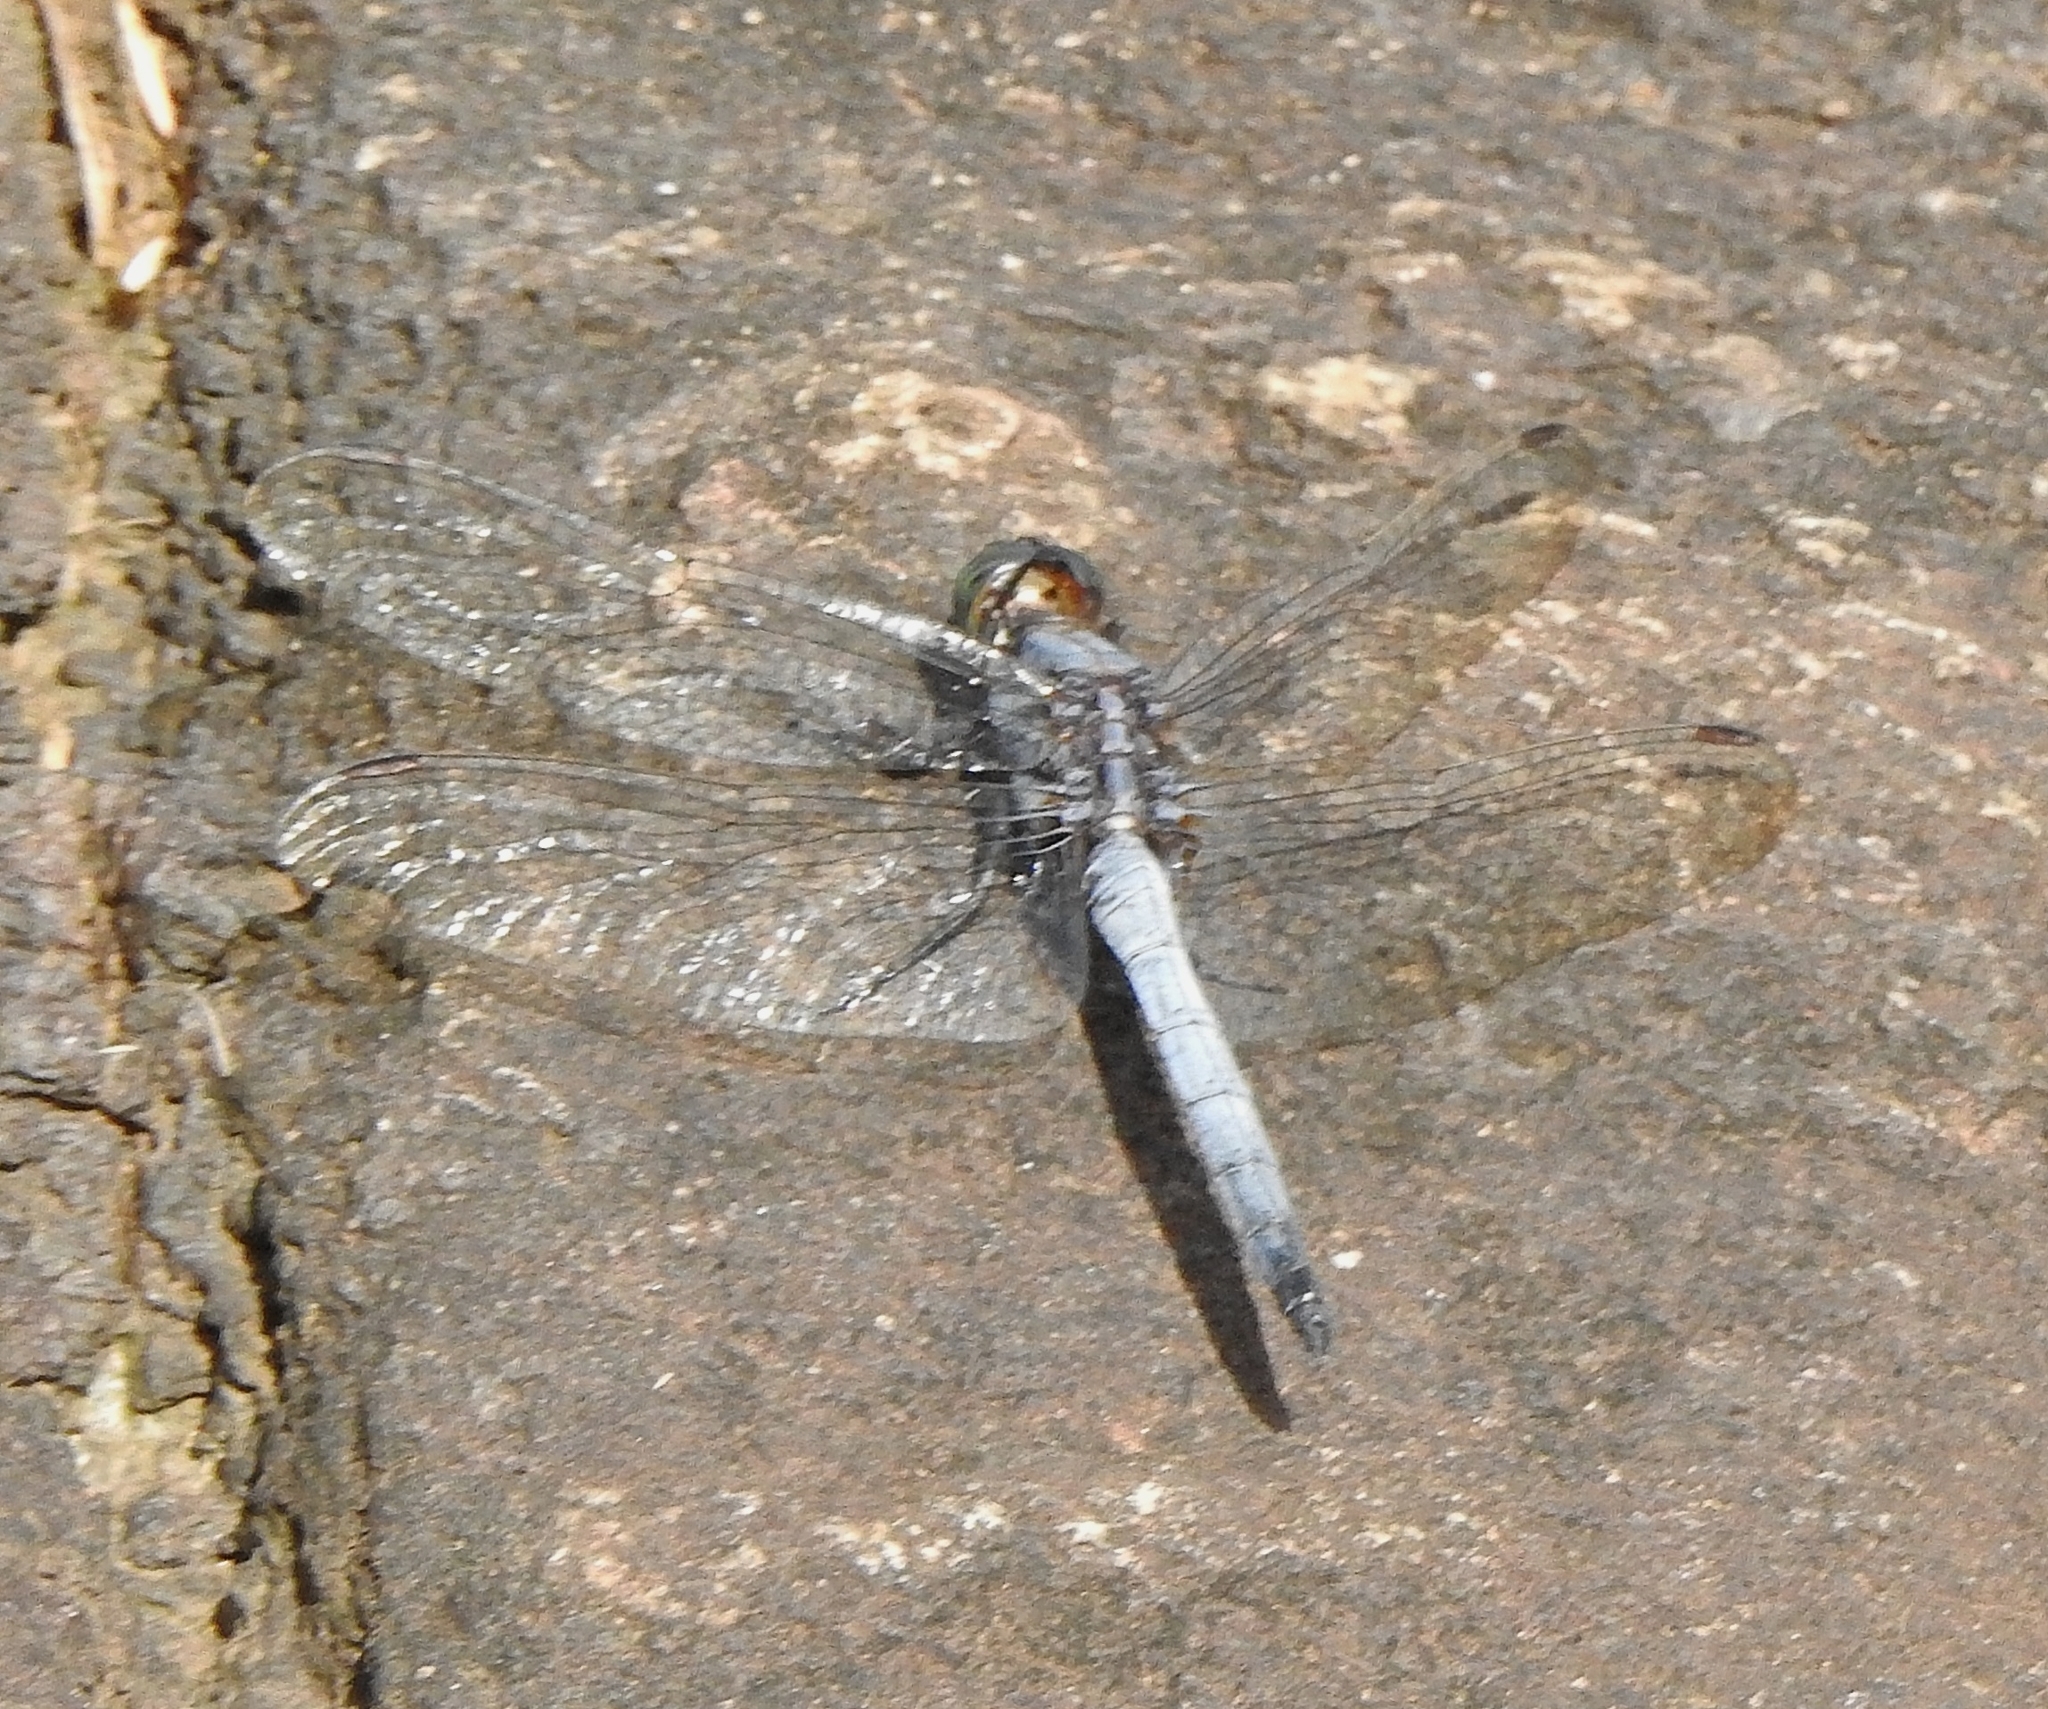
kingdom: Animalia
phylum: Arthropoda
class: Insecta
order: Odonata
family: Libellulidae
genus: Orthetrum
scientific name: Orthetrum glaucum
